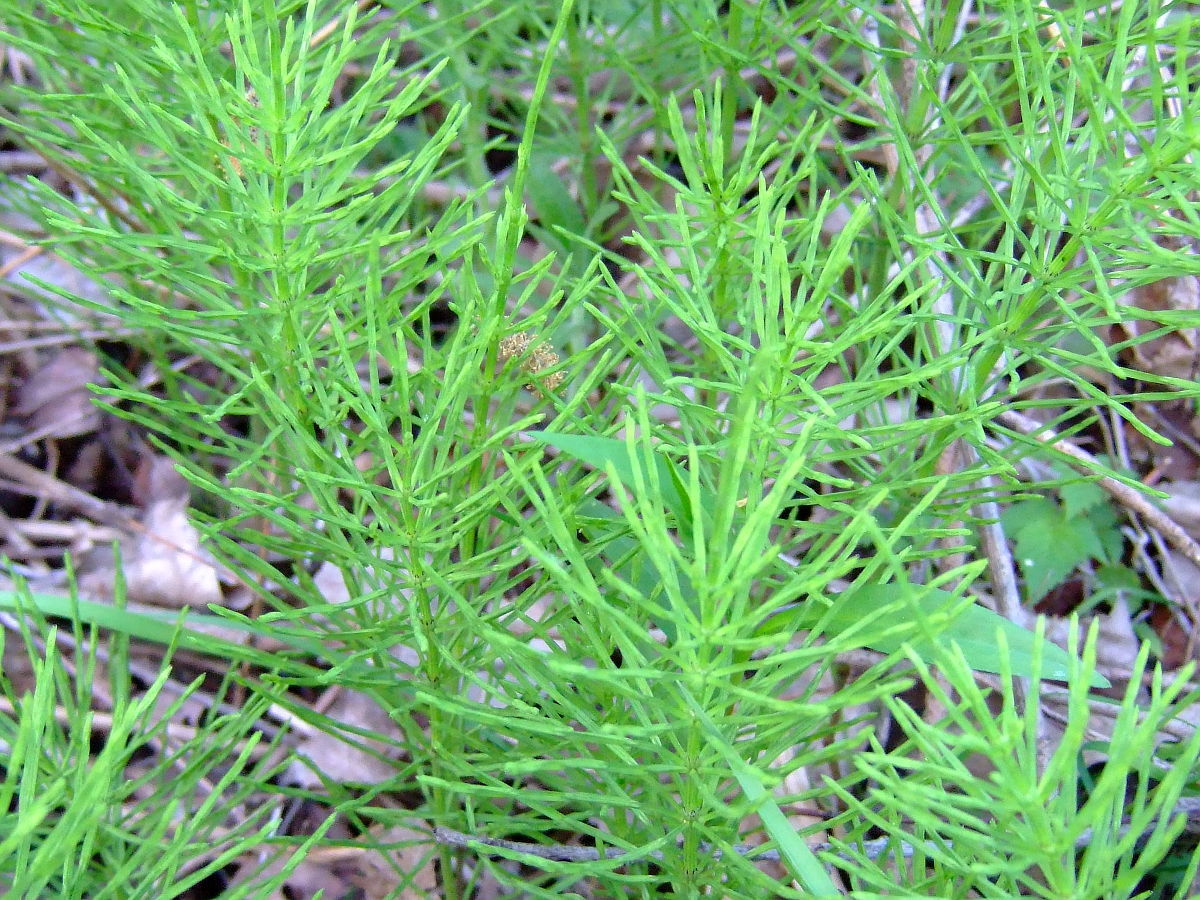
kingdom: Plantae
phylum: Tracheophyta
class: Polypodiopsida
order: Equisetales
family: Equisetaceae
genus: Equisetum
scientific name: Equisetum arvense
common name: Field horsetail
